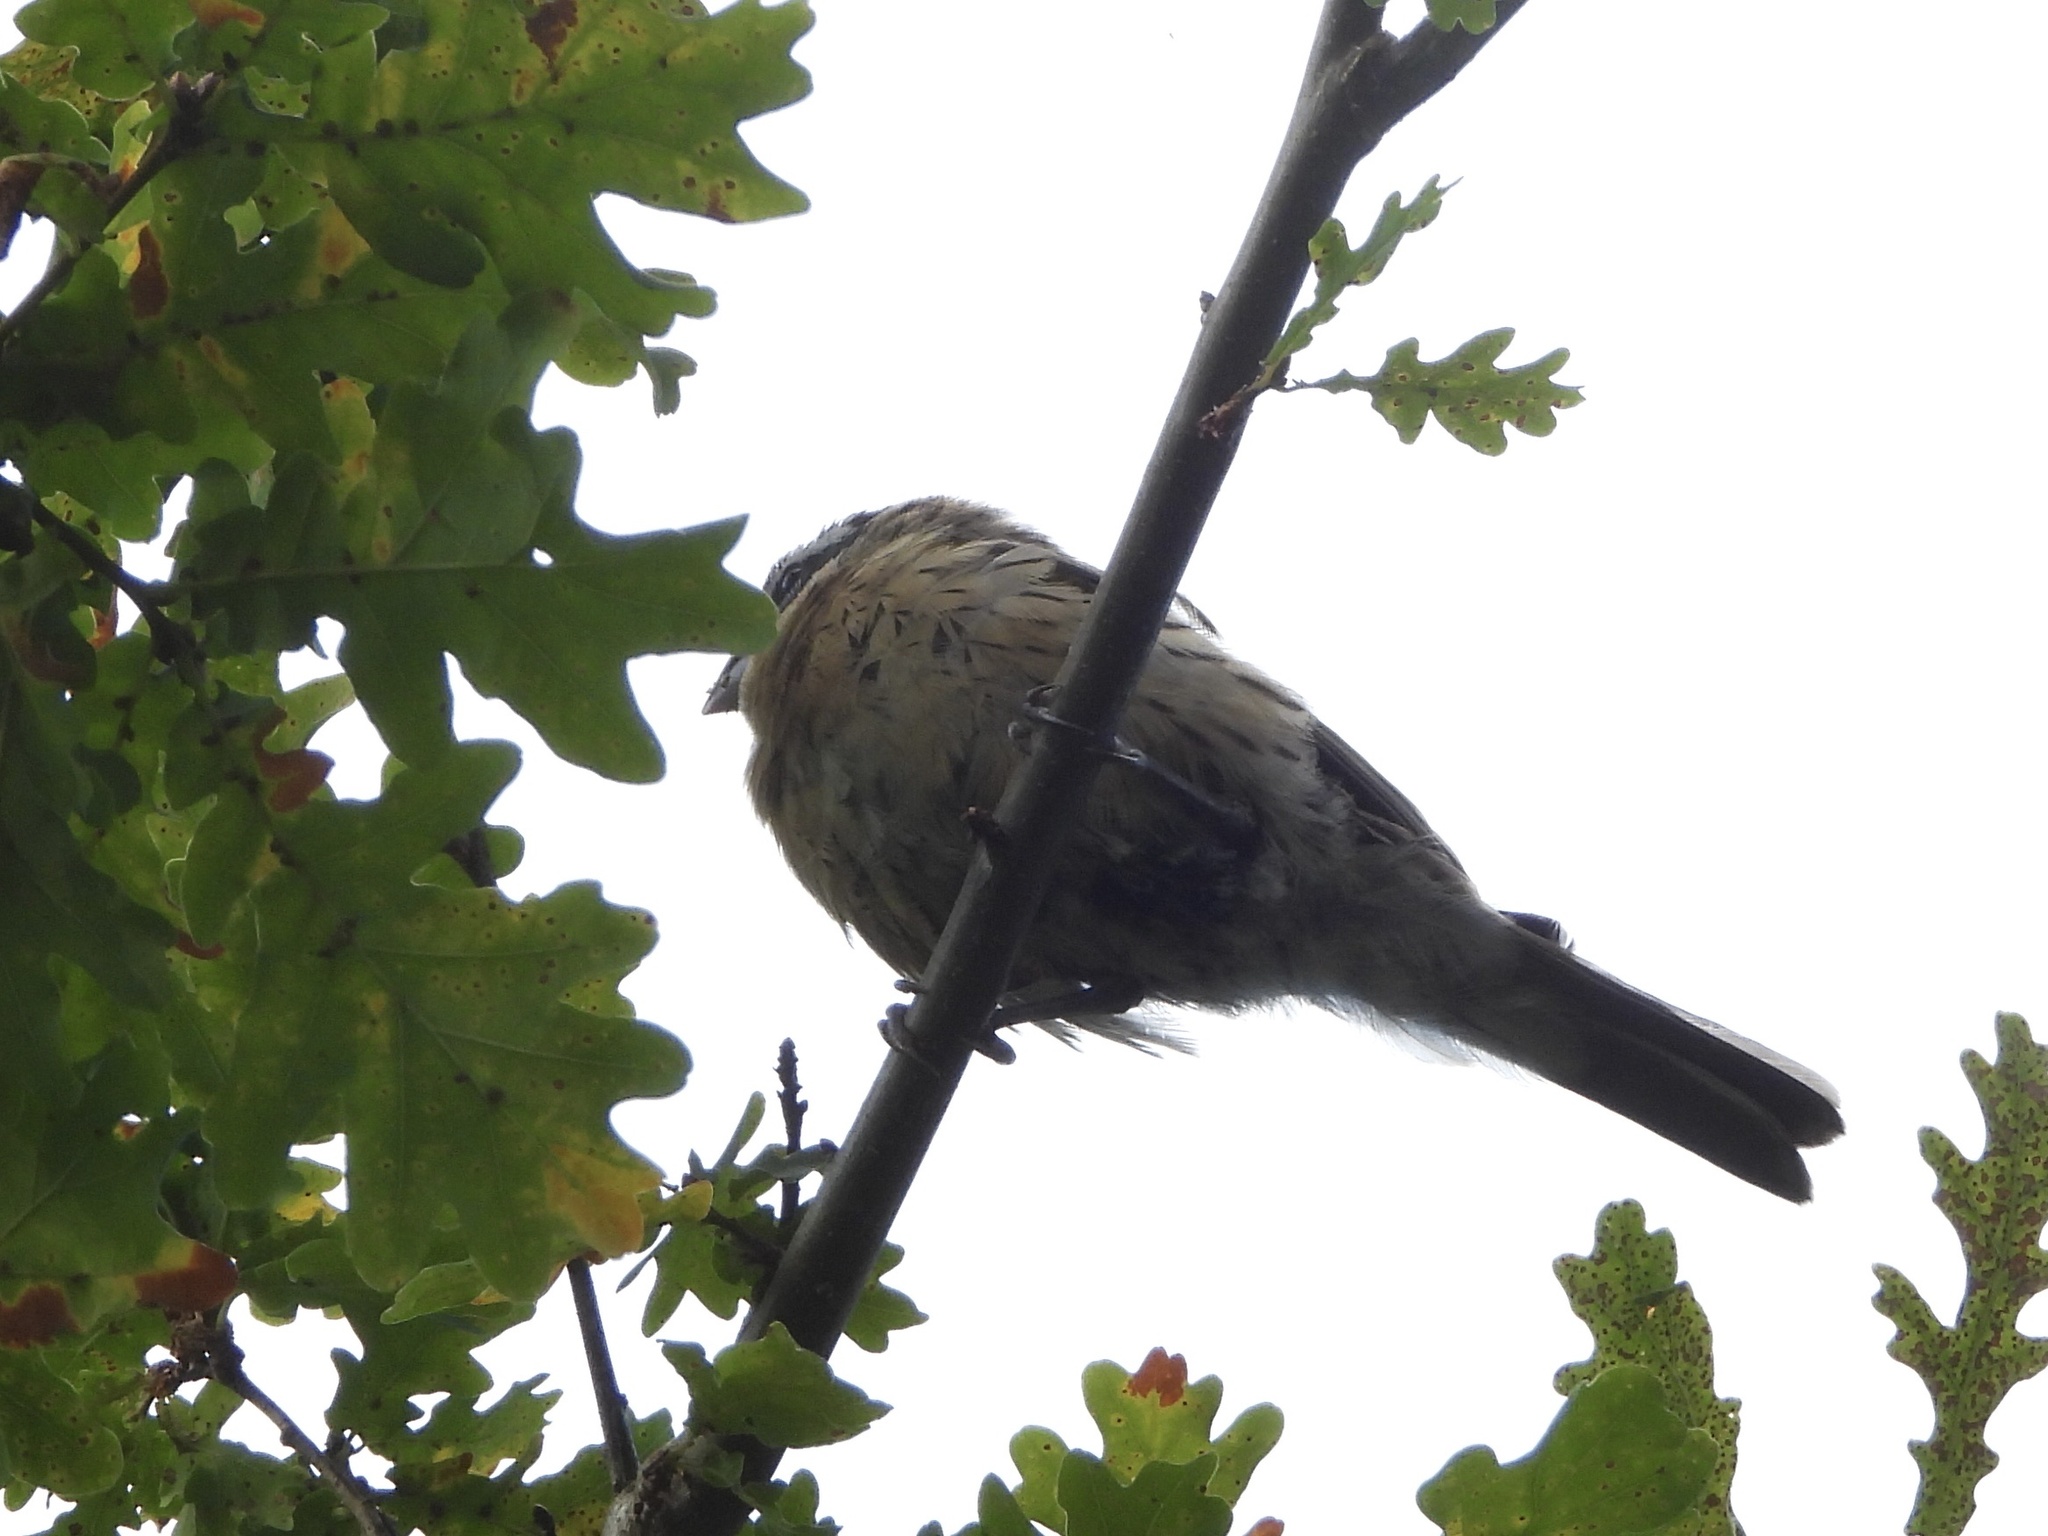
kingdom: Animalia
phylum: Chordata
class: Aves
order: Passeriformes
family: Cardinalidae
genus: Pheucticus
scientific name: Pheucticus melanocephalus
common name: Black-headed grosbeak
